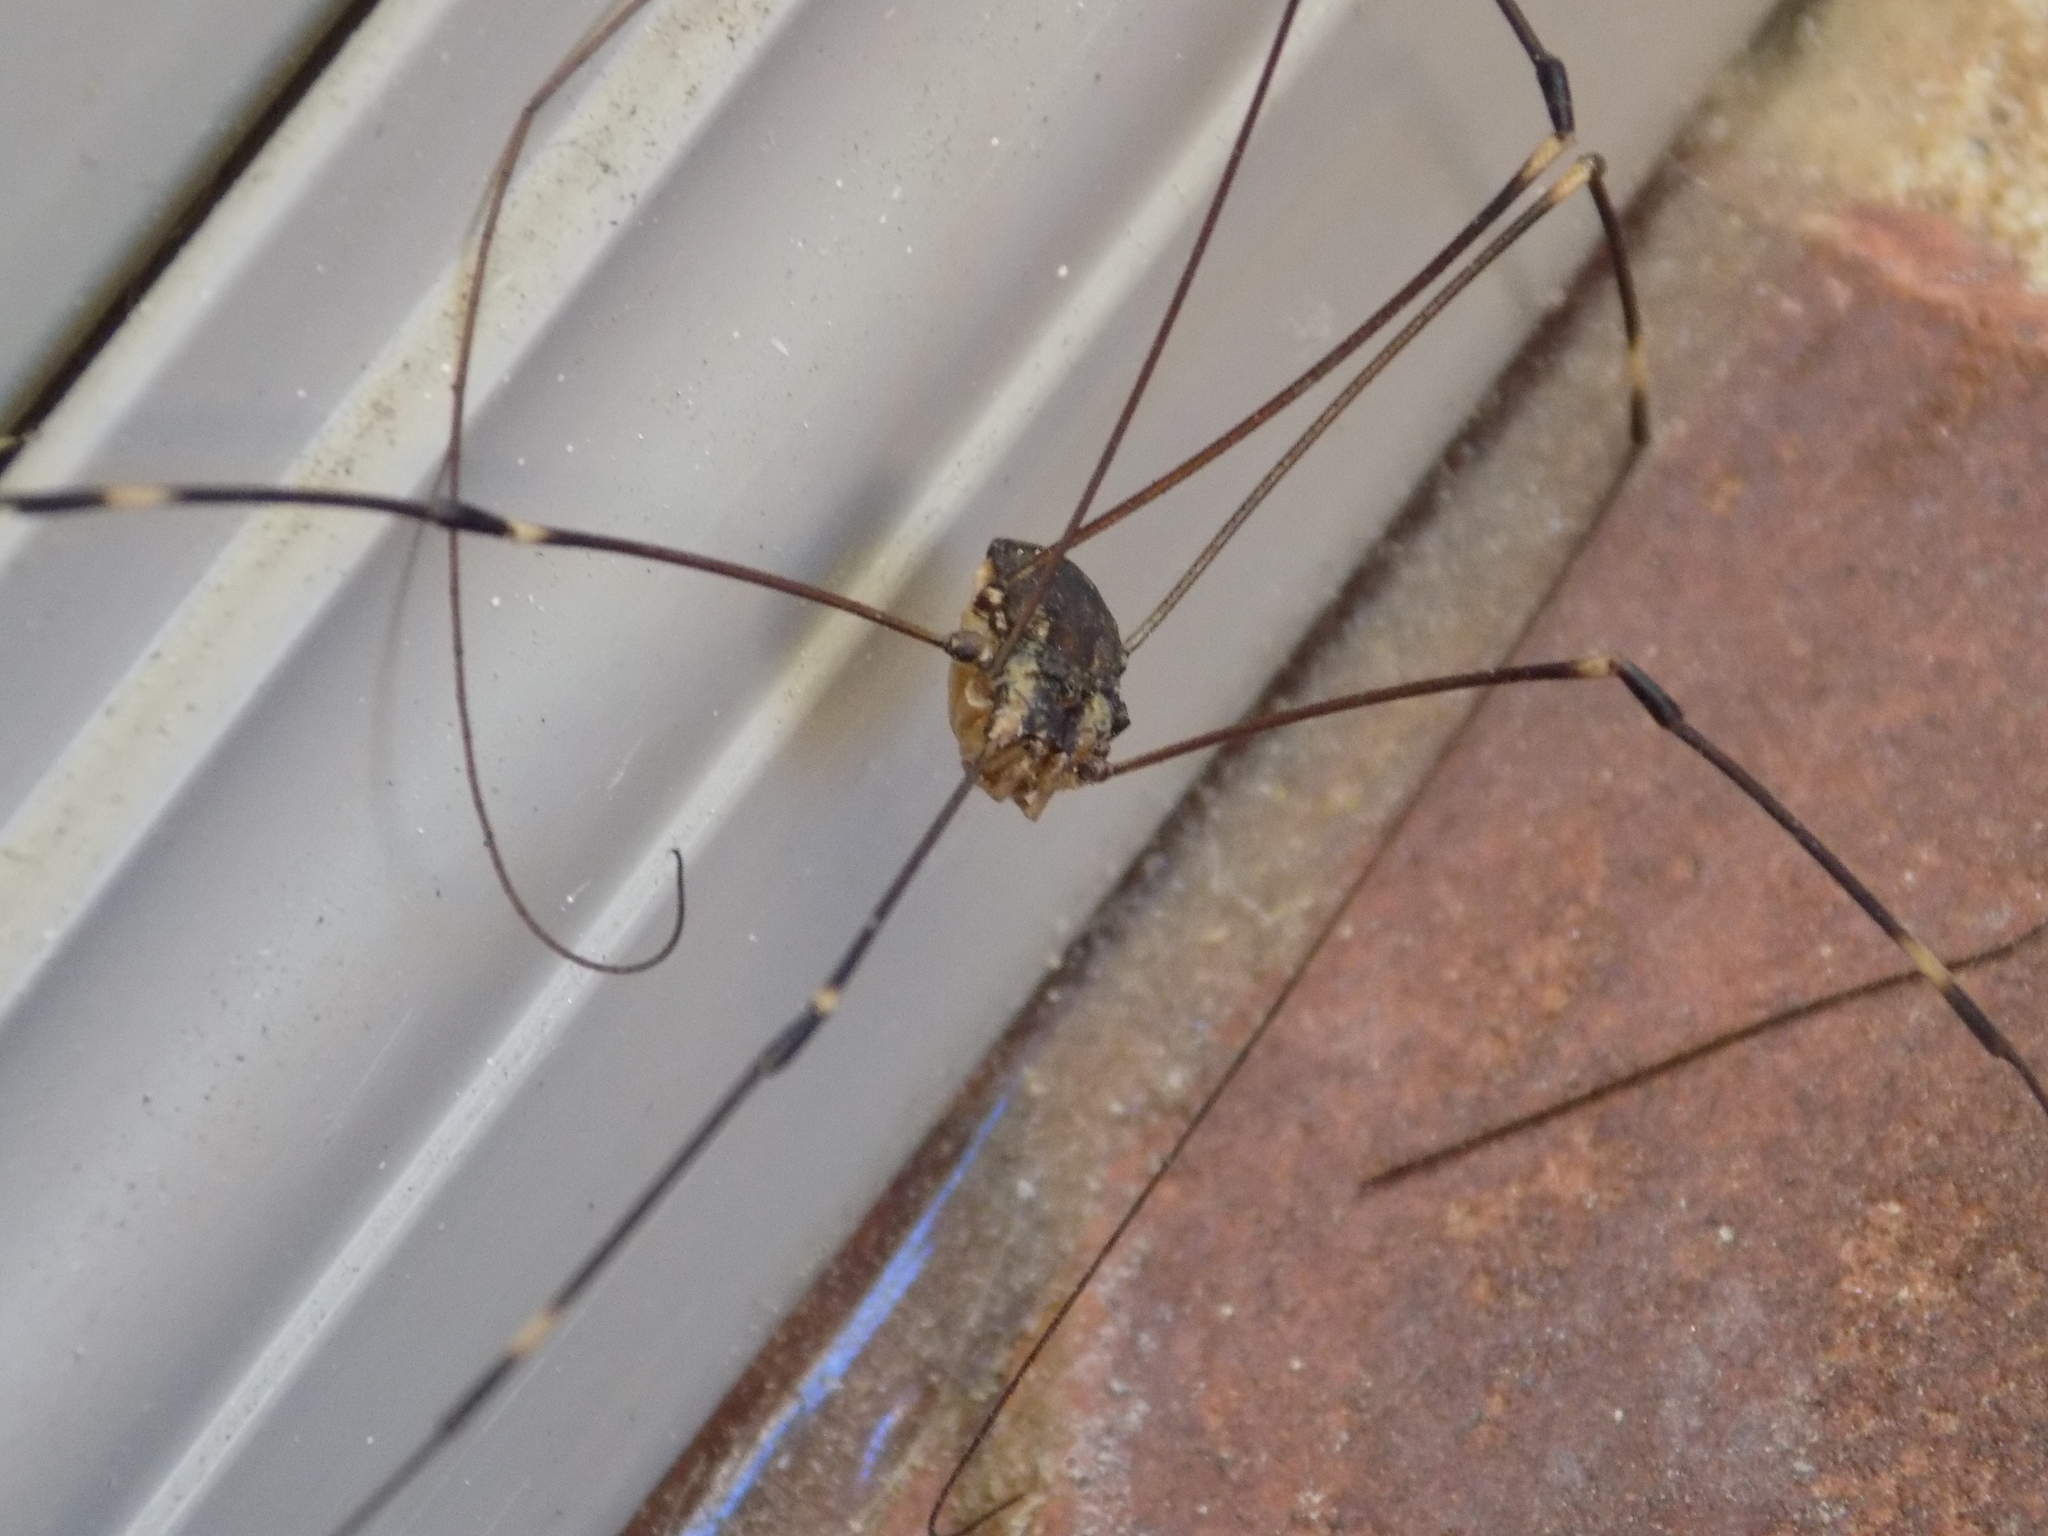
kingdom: Animalia
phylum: Arthropoda
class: Arachnida
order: Opiliones
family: Sclerosomatidae
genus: Leiobunum
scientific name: Leiobunum townsendi
